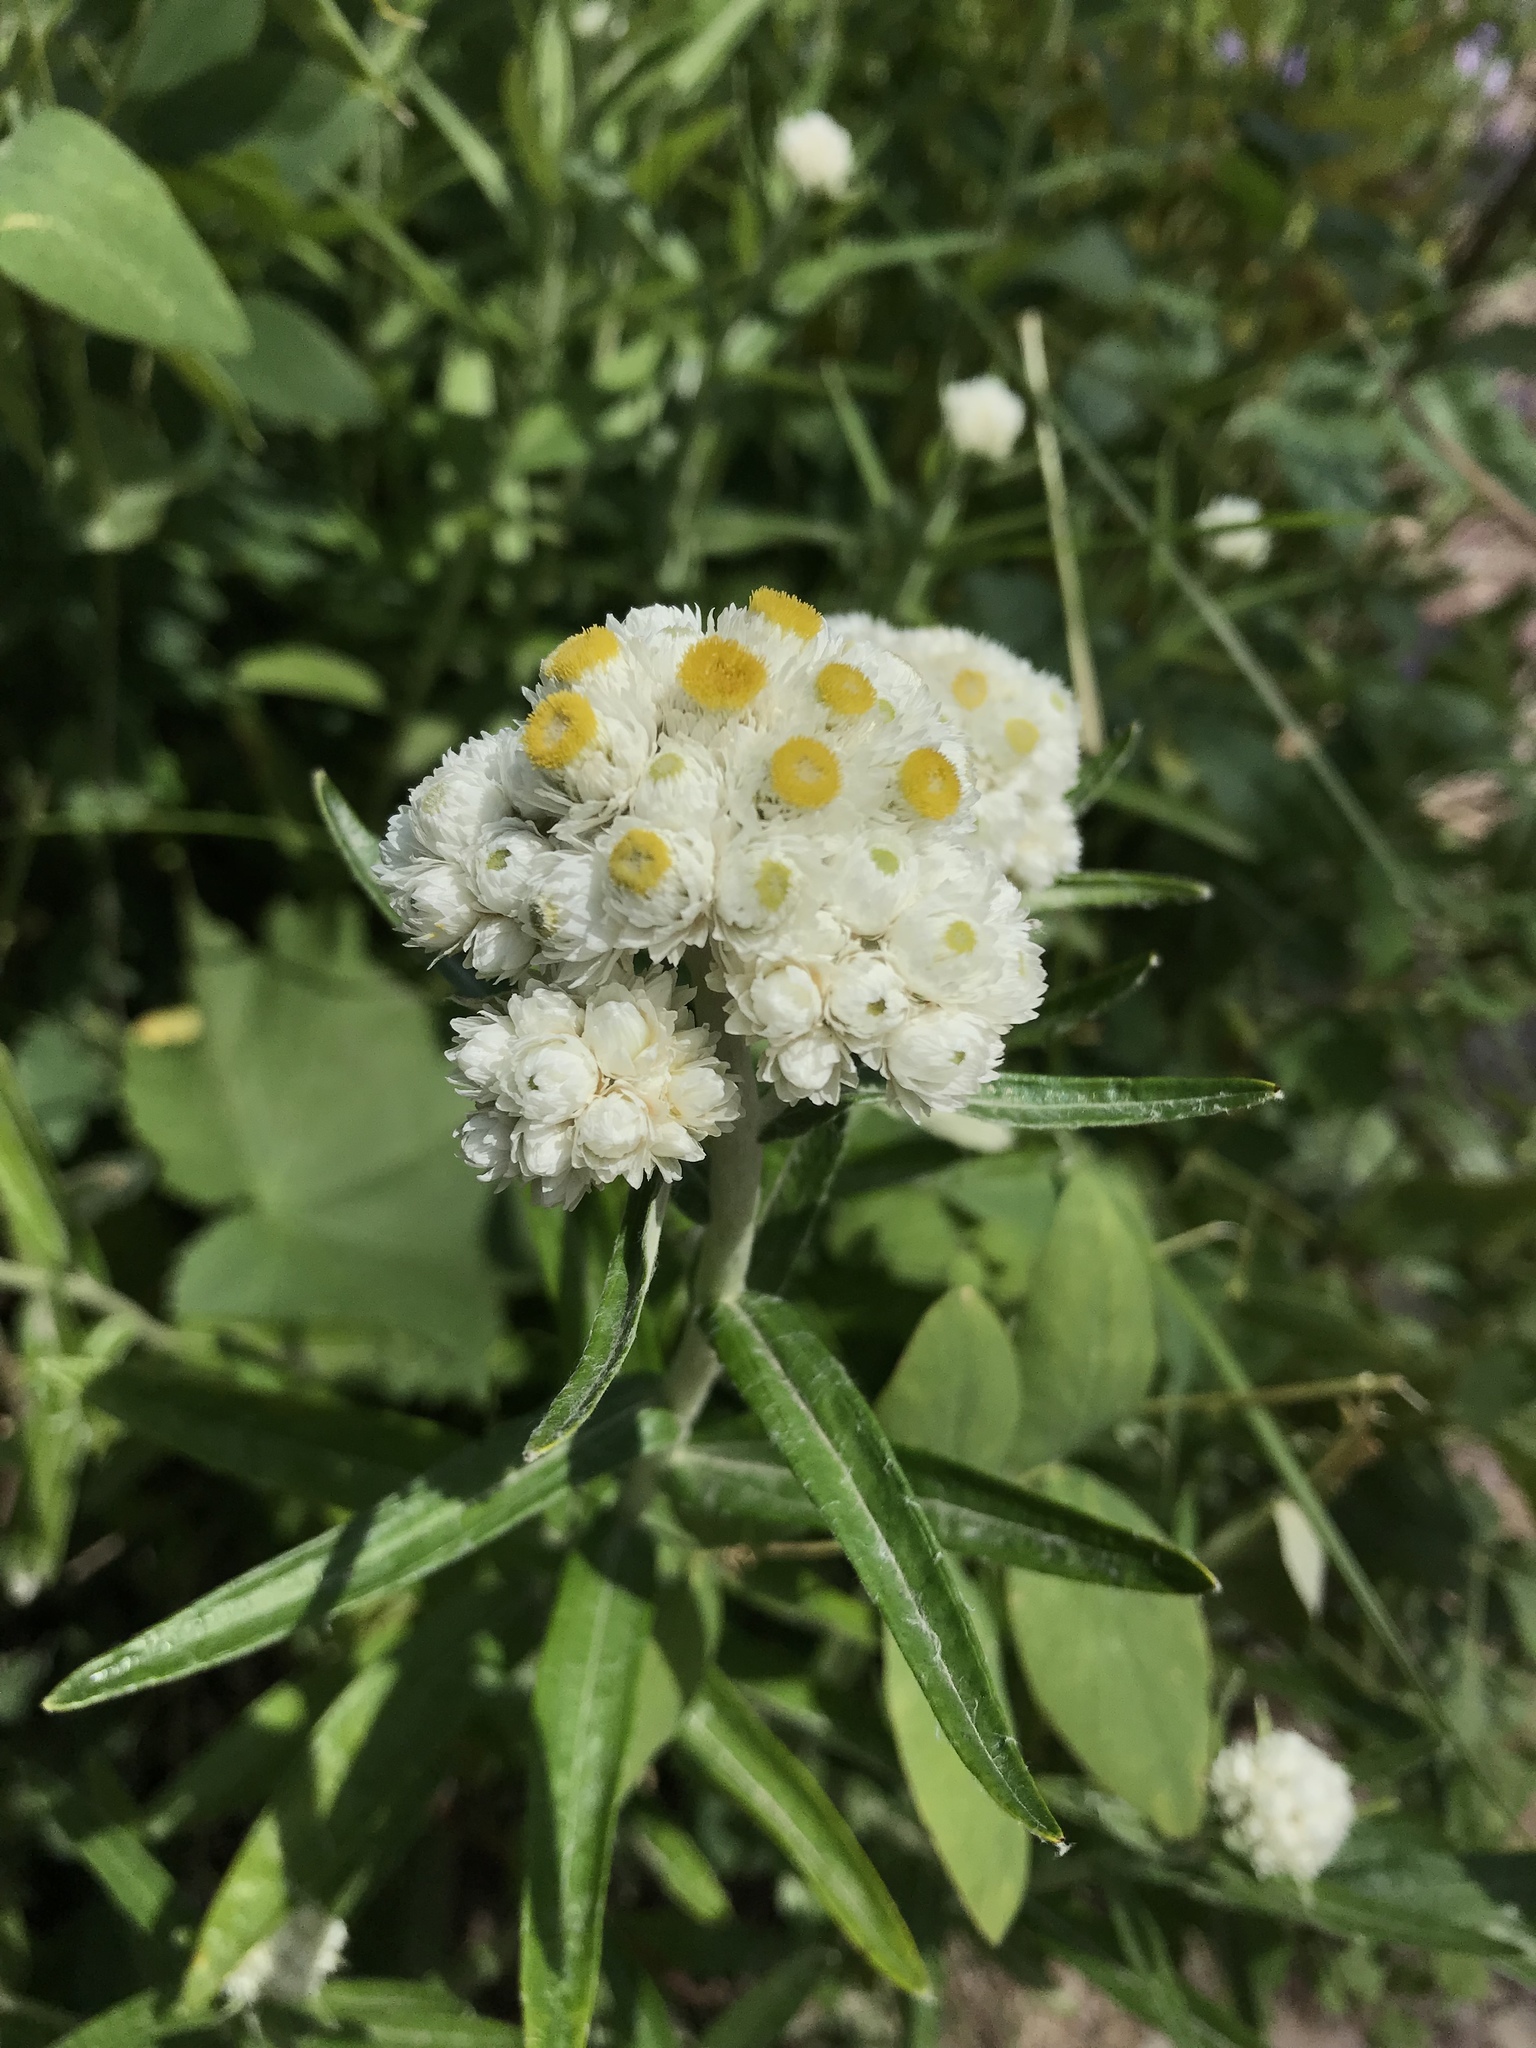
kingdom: Plantae
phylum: Tracheophyta
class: Magnoliopsida
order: Asterales
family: Asteraceae
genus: Anaphalis
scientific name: Anaphalis margaritacea
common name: Pearly everlasting
